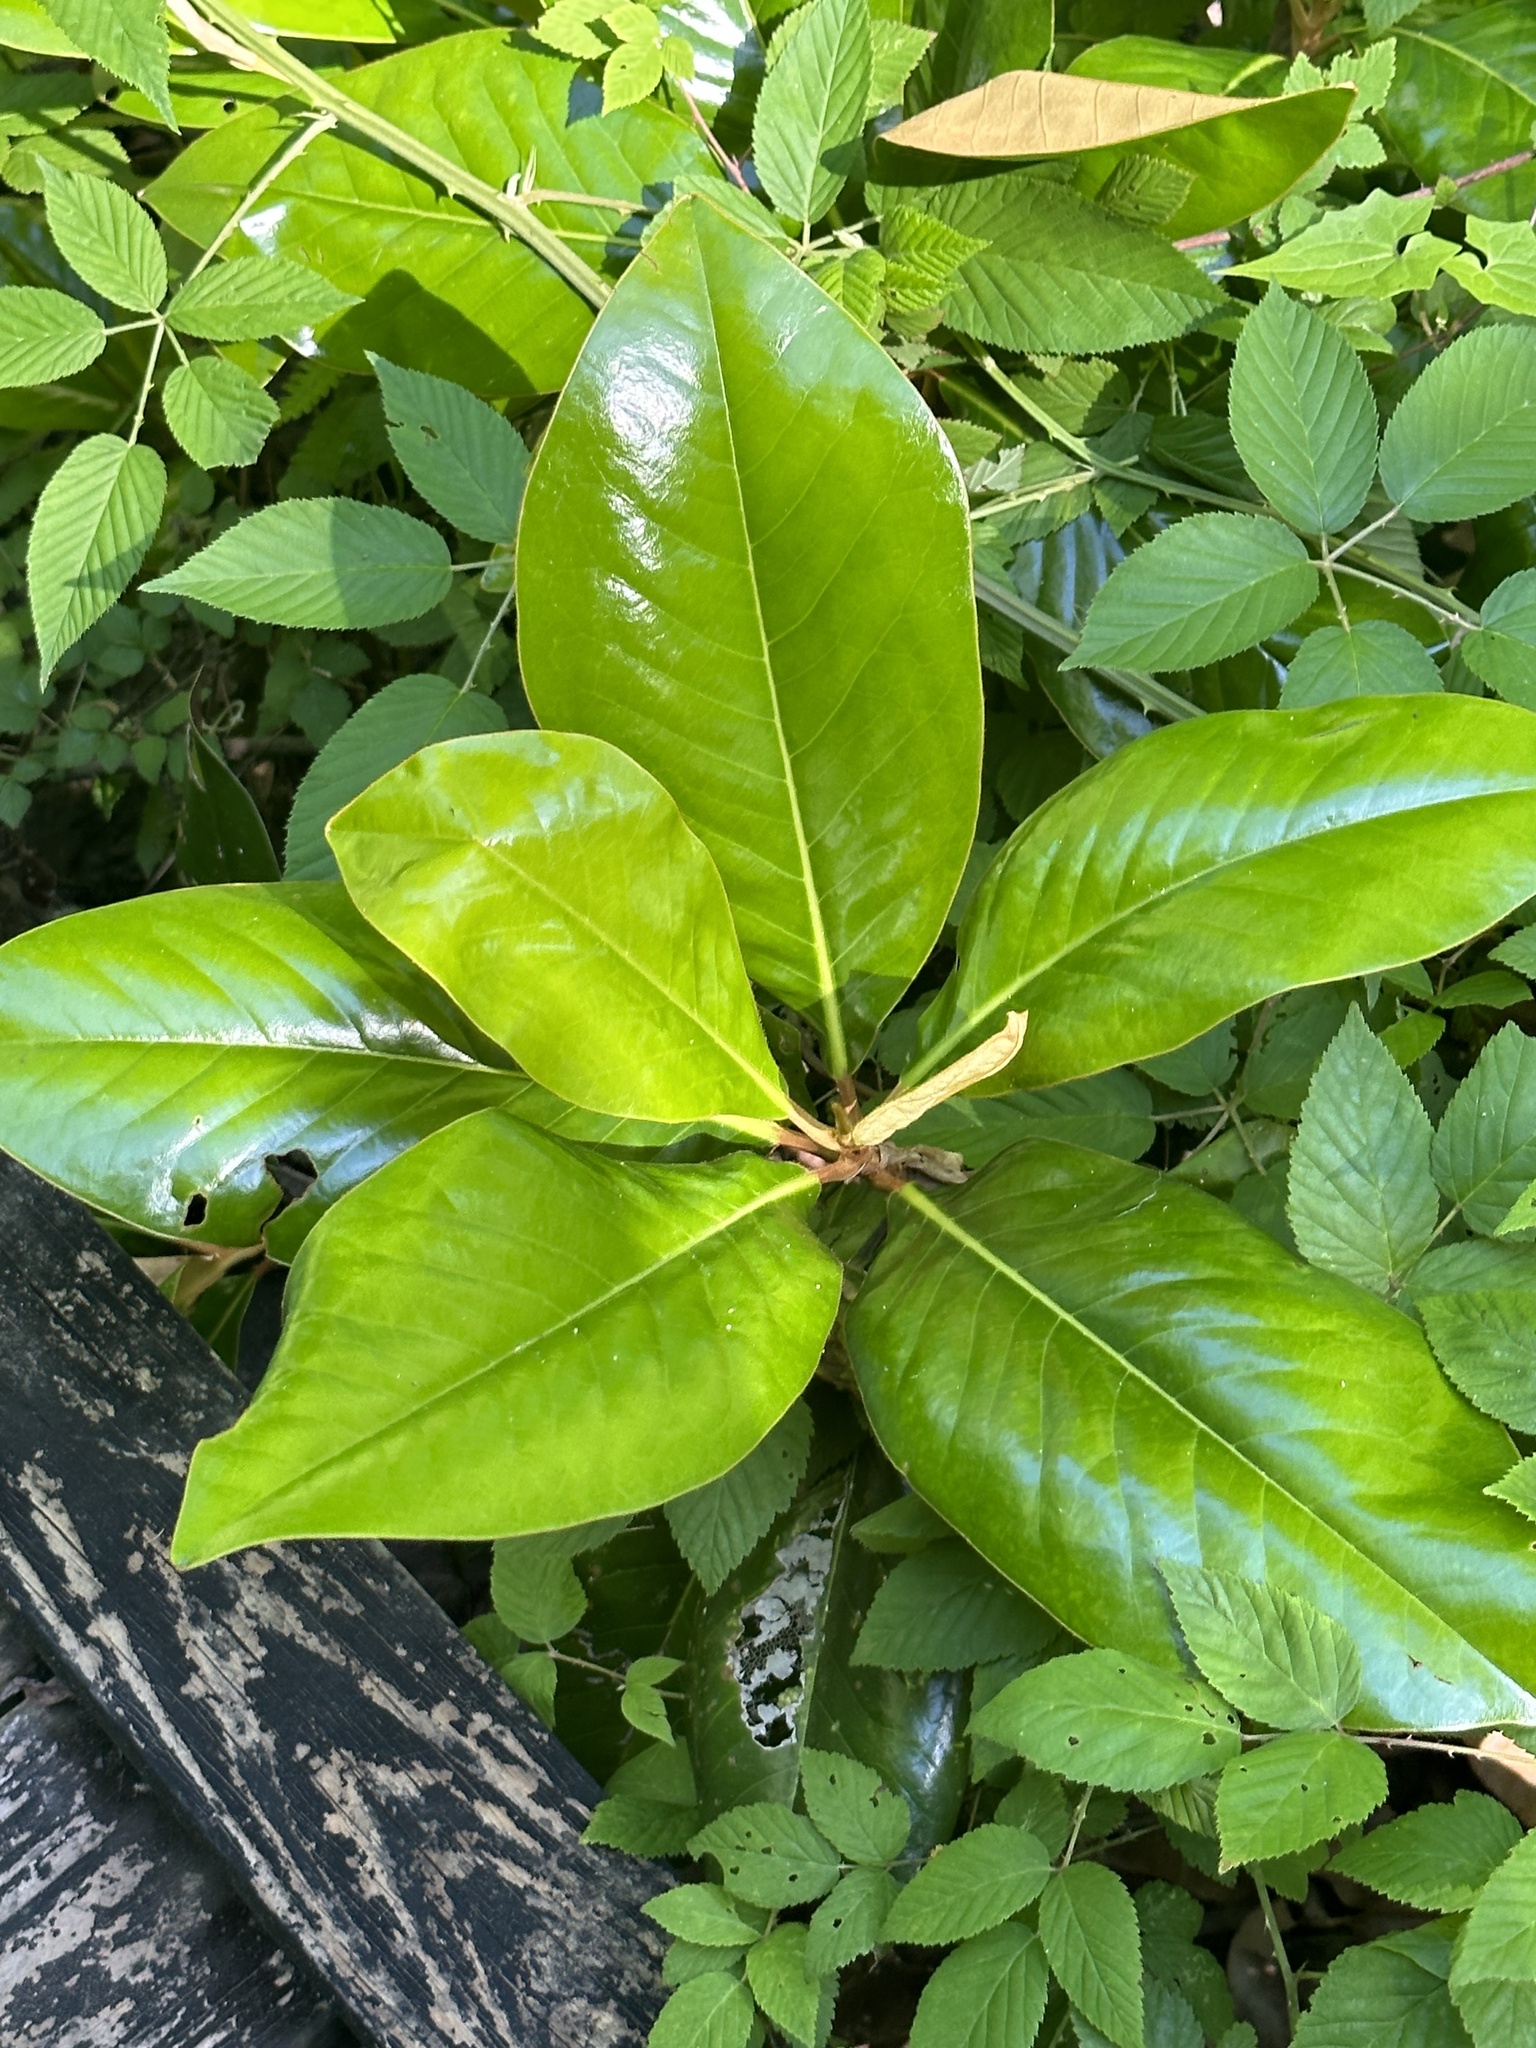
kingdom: Plantae
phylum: Tracheophyta
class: Magnoliopsida
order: Magnoliales
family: Magnoliaceae
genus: Magnolia
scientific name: Magnolia grandiflora
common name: Southern magnolia
